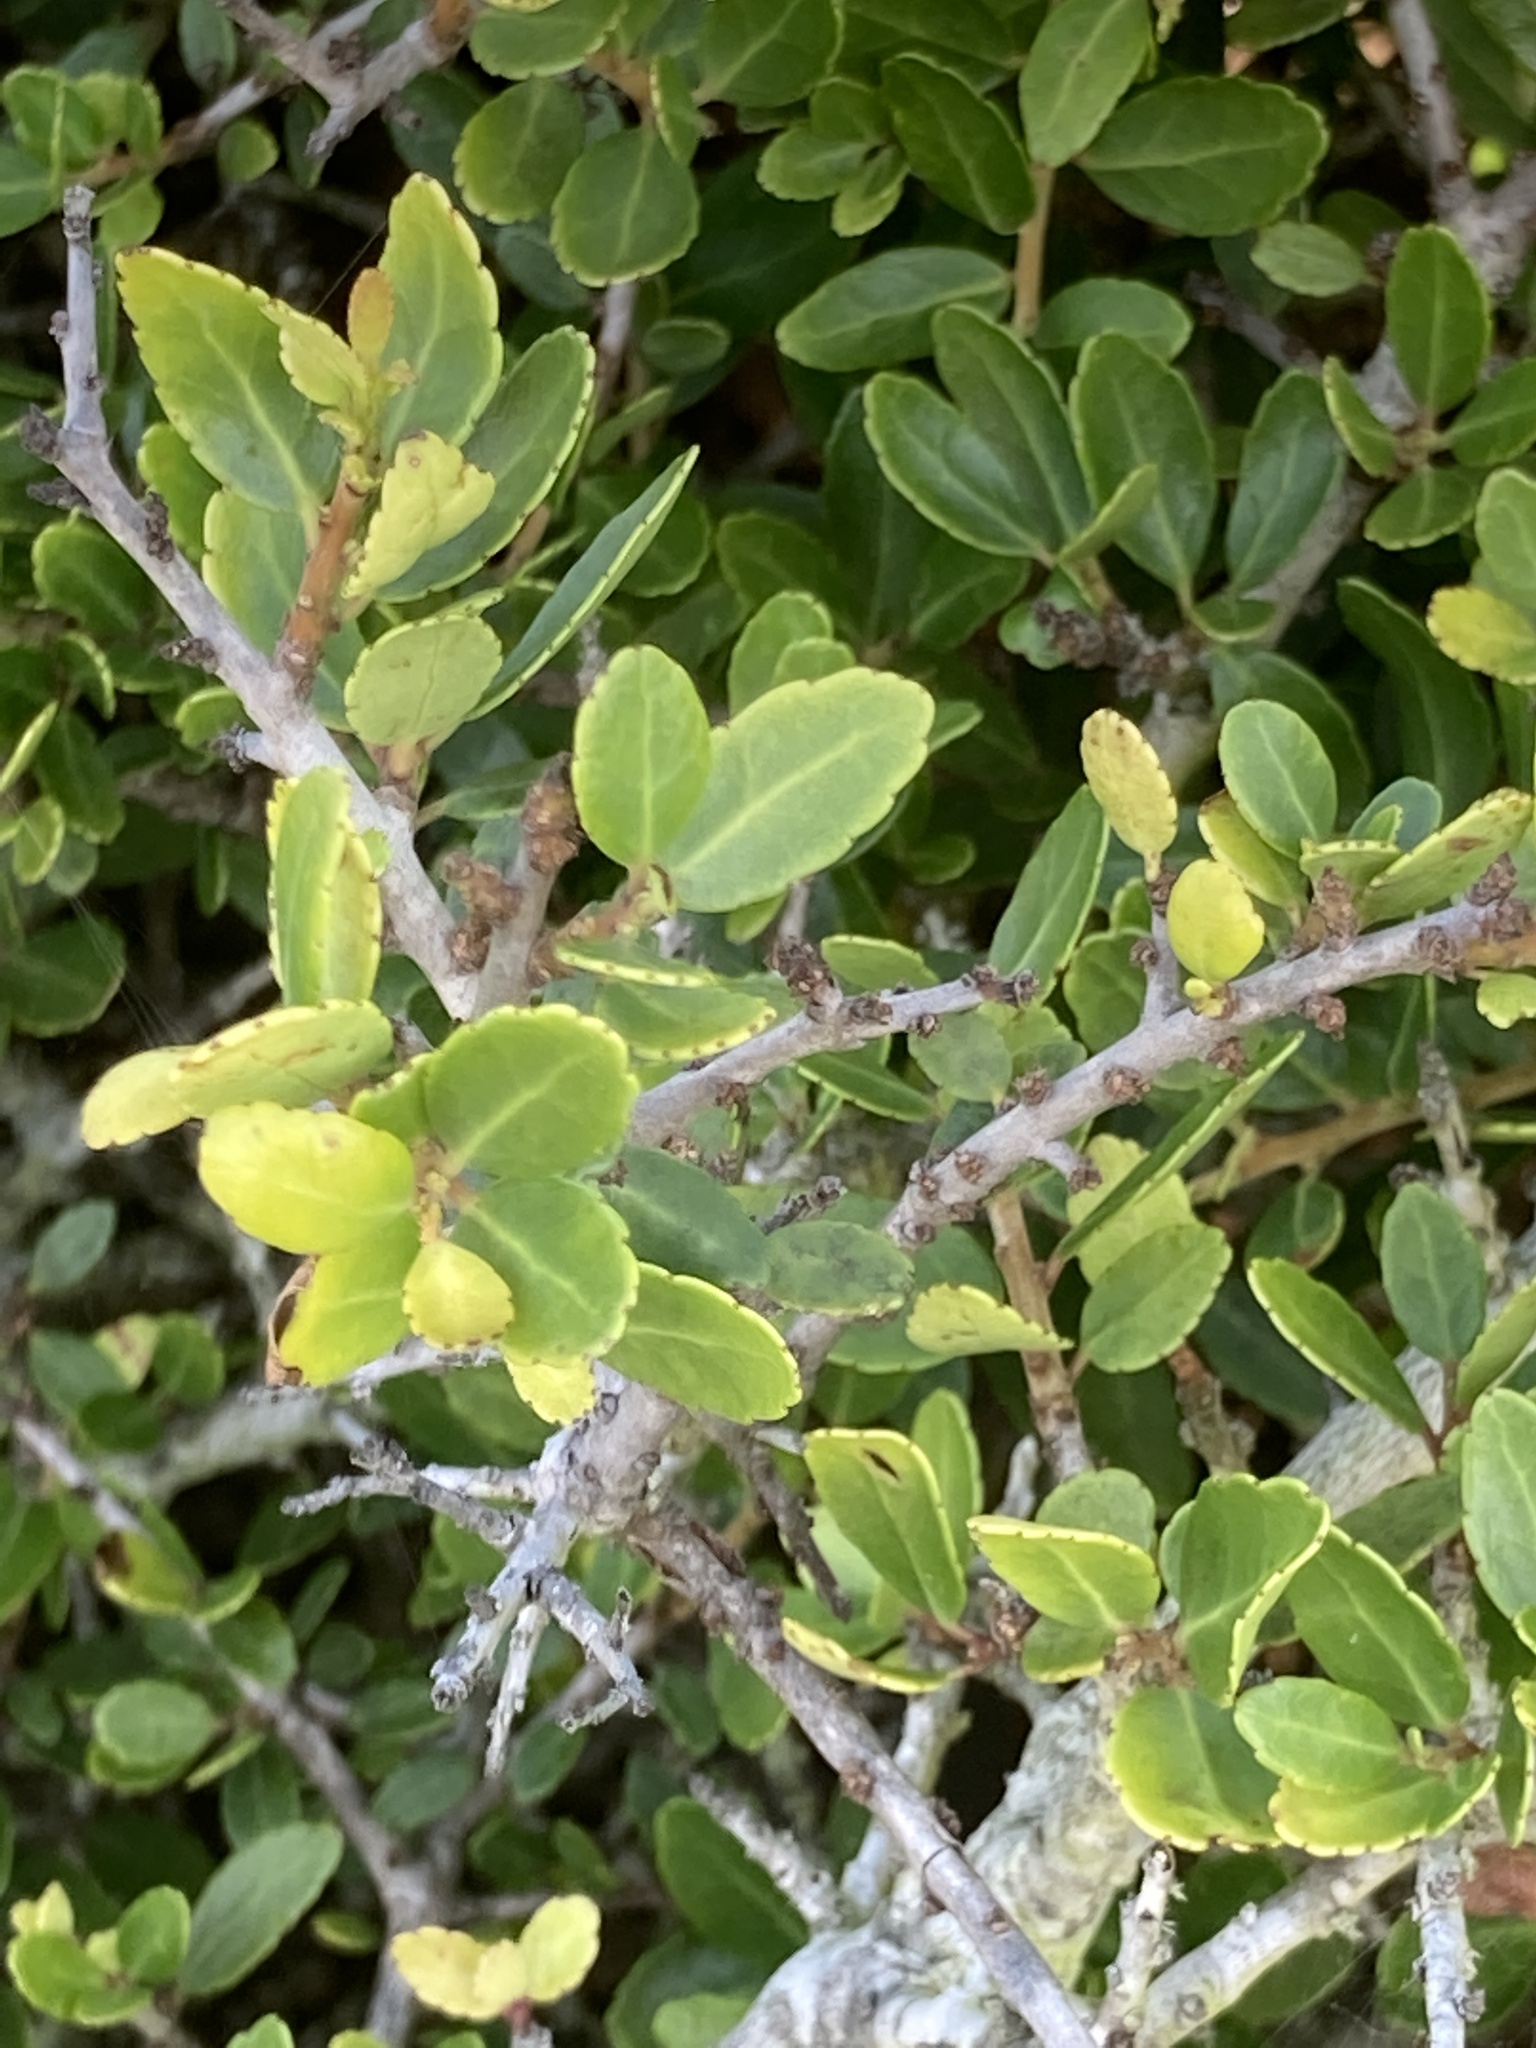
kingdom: Plantae
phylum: Tracheophyta
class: Magnoliopsida
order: Aquifoliales
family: Aquifoliaceae
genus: Ilex
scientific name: Ilex vomitoria
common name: Yaupon holly
